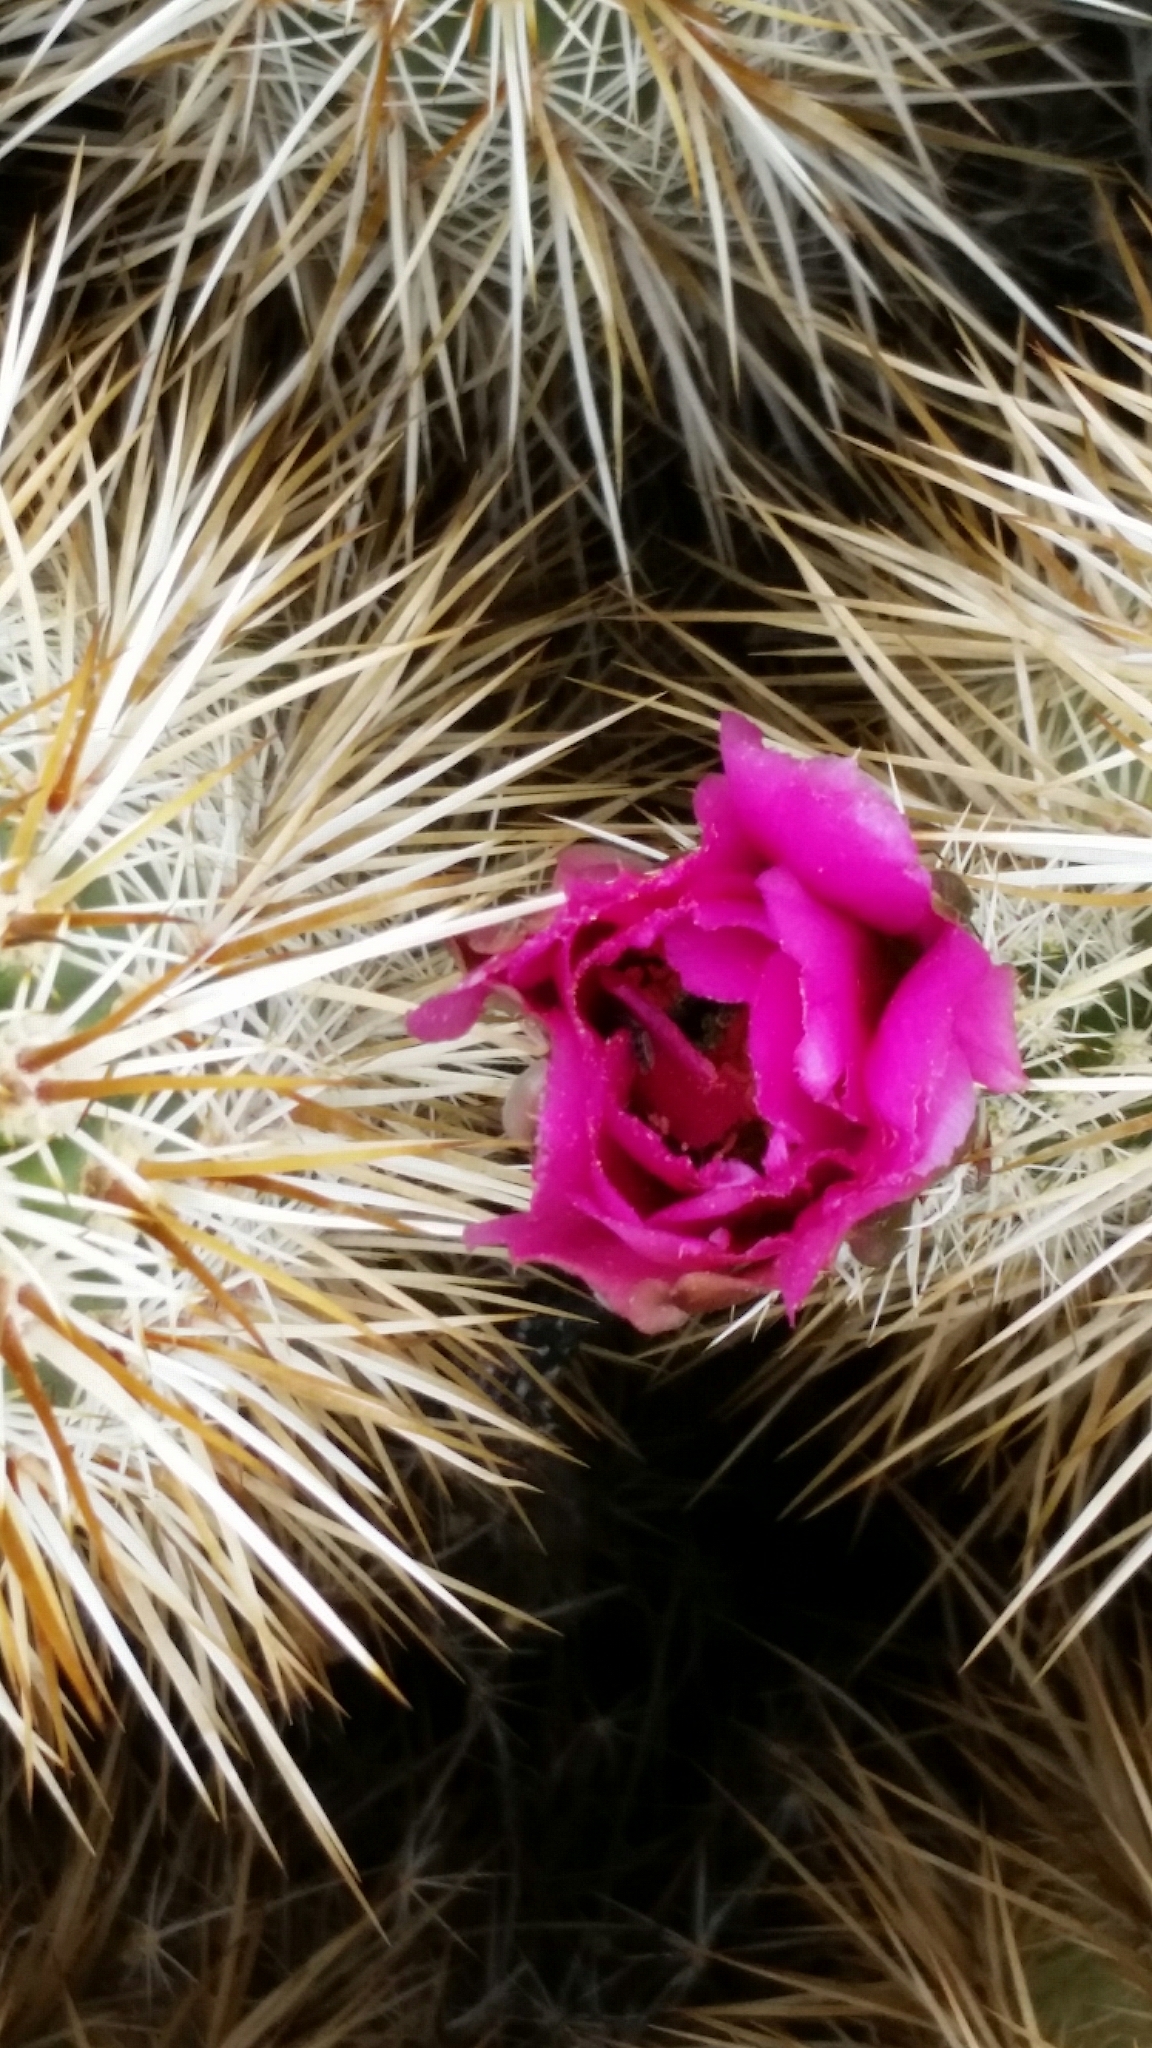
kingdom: Plantae
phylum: Tracheophyta
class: Magnoliopsida
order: Caryophyllales
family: Cactaceae
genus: Echinocereus
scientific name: Echinocereus engelmannii
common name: Engelmann's hedgehog cactus
